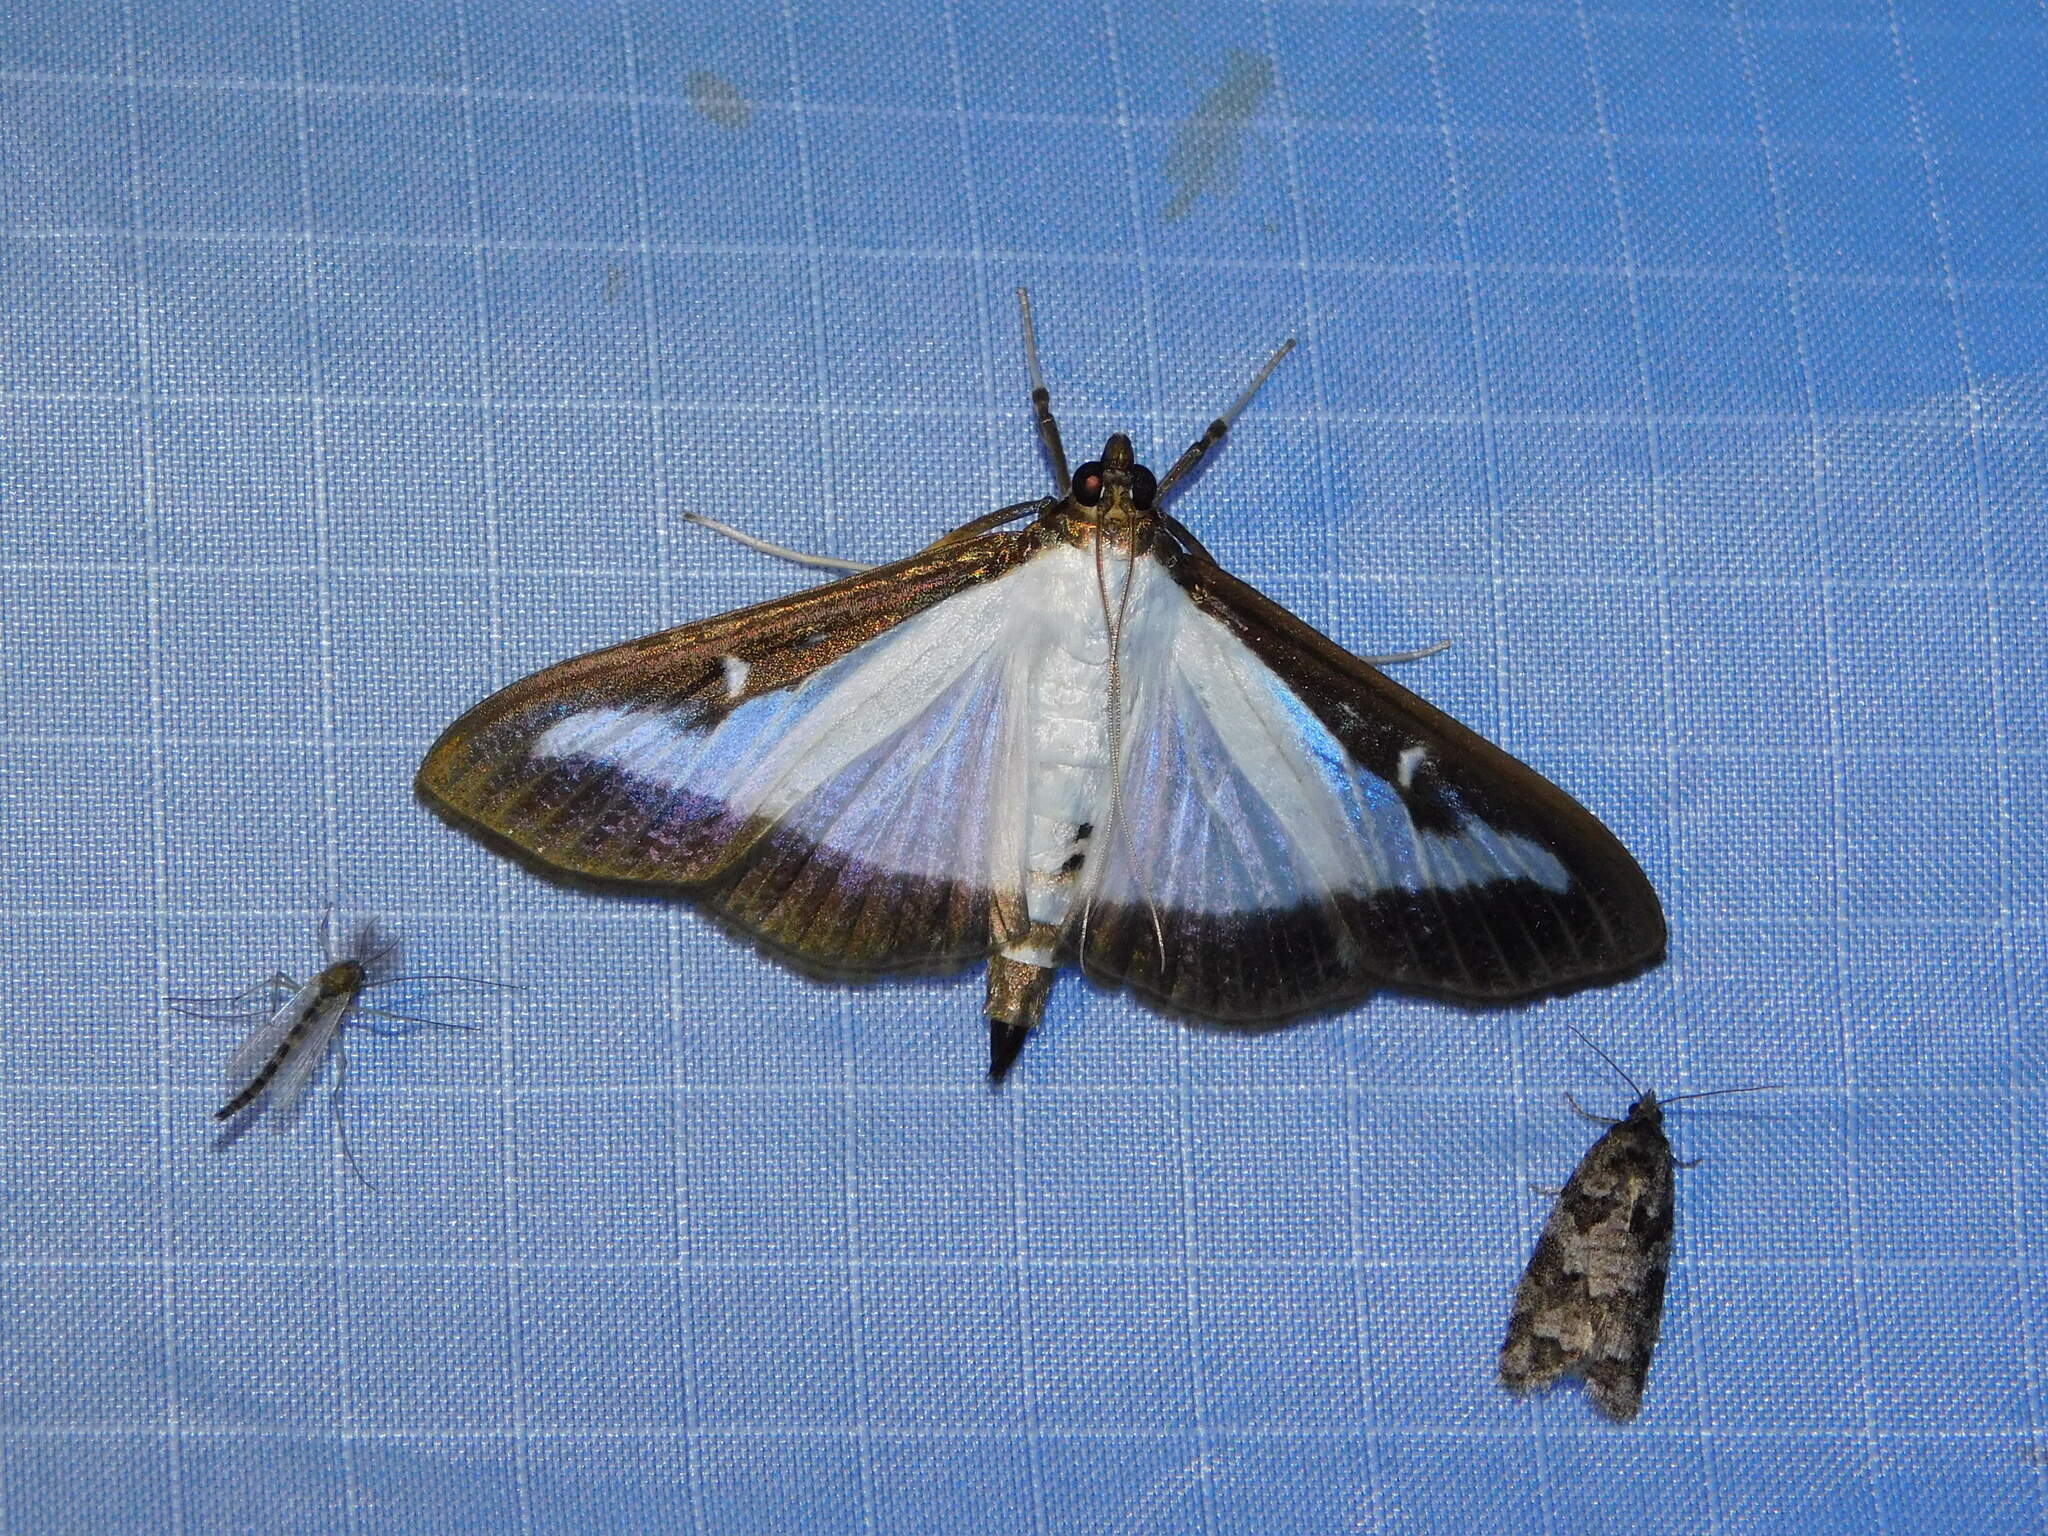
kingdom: Animalia
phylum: Arthropoda
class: Insecta
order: Lepidoptera
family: Crambidae
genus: Cydalima
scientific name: Cydalima perspectalis
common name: Box tree moth
